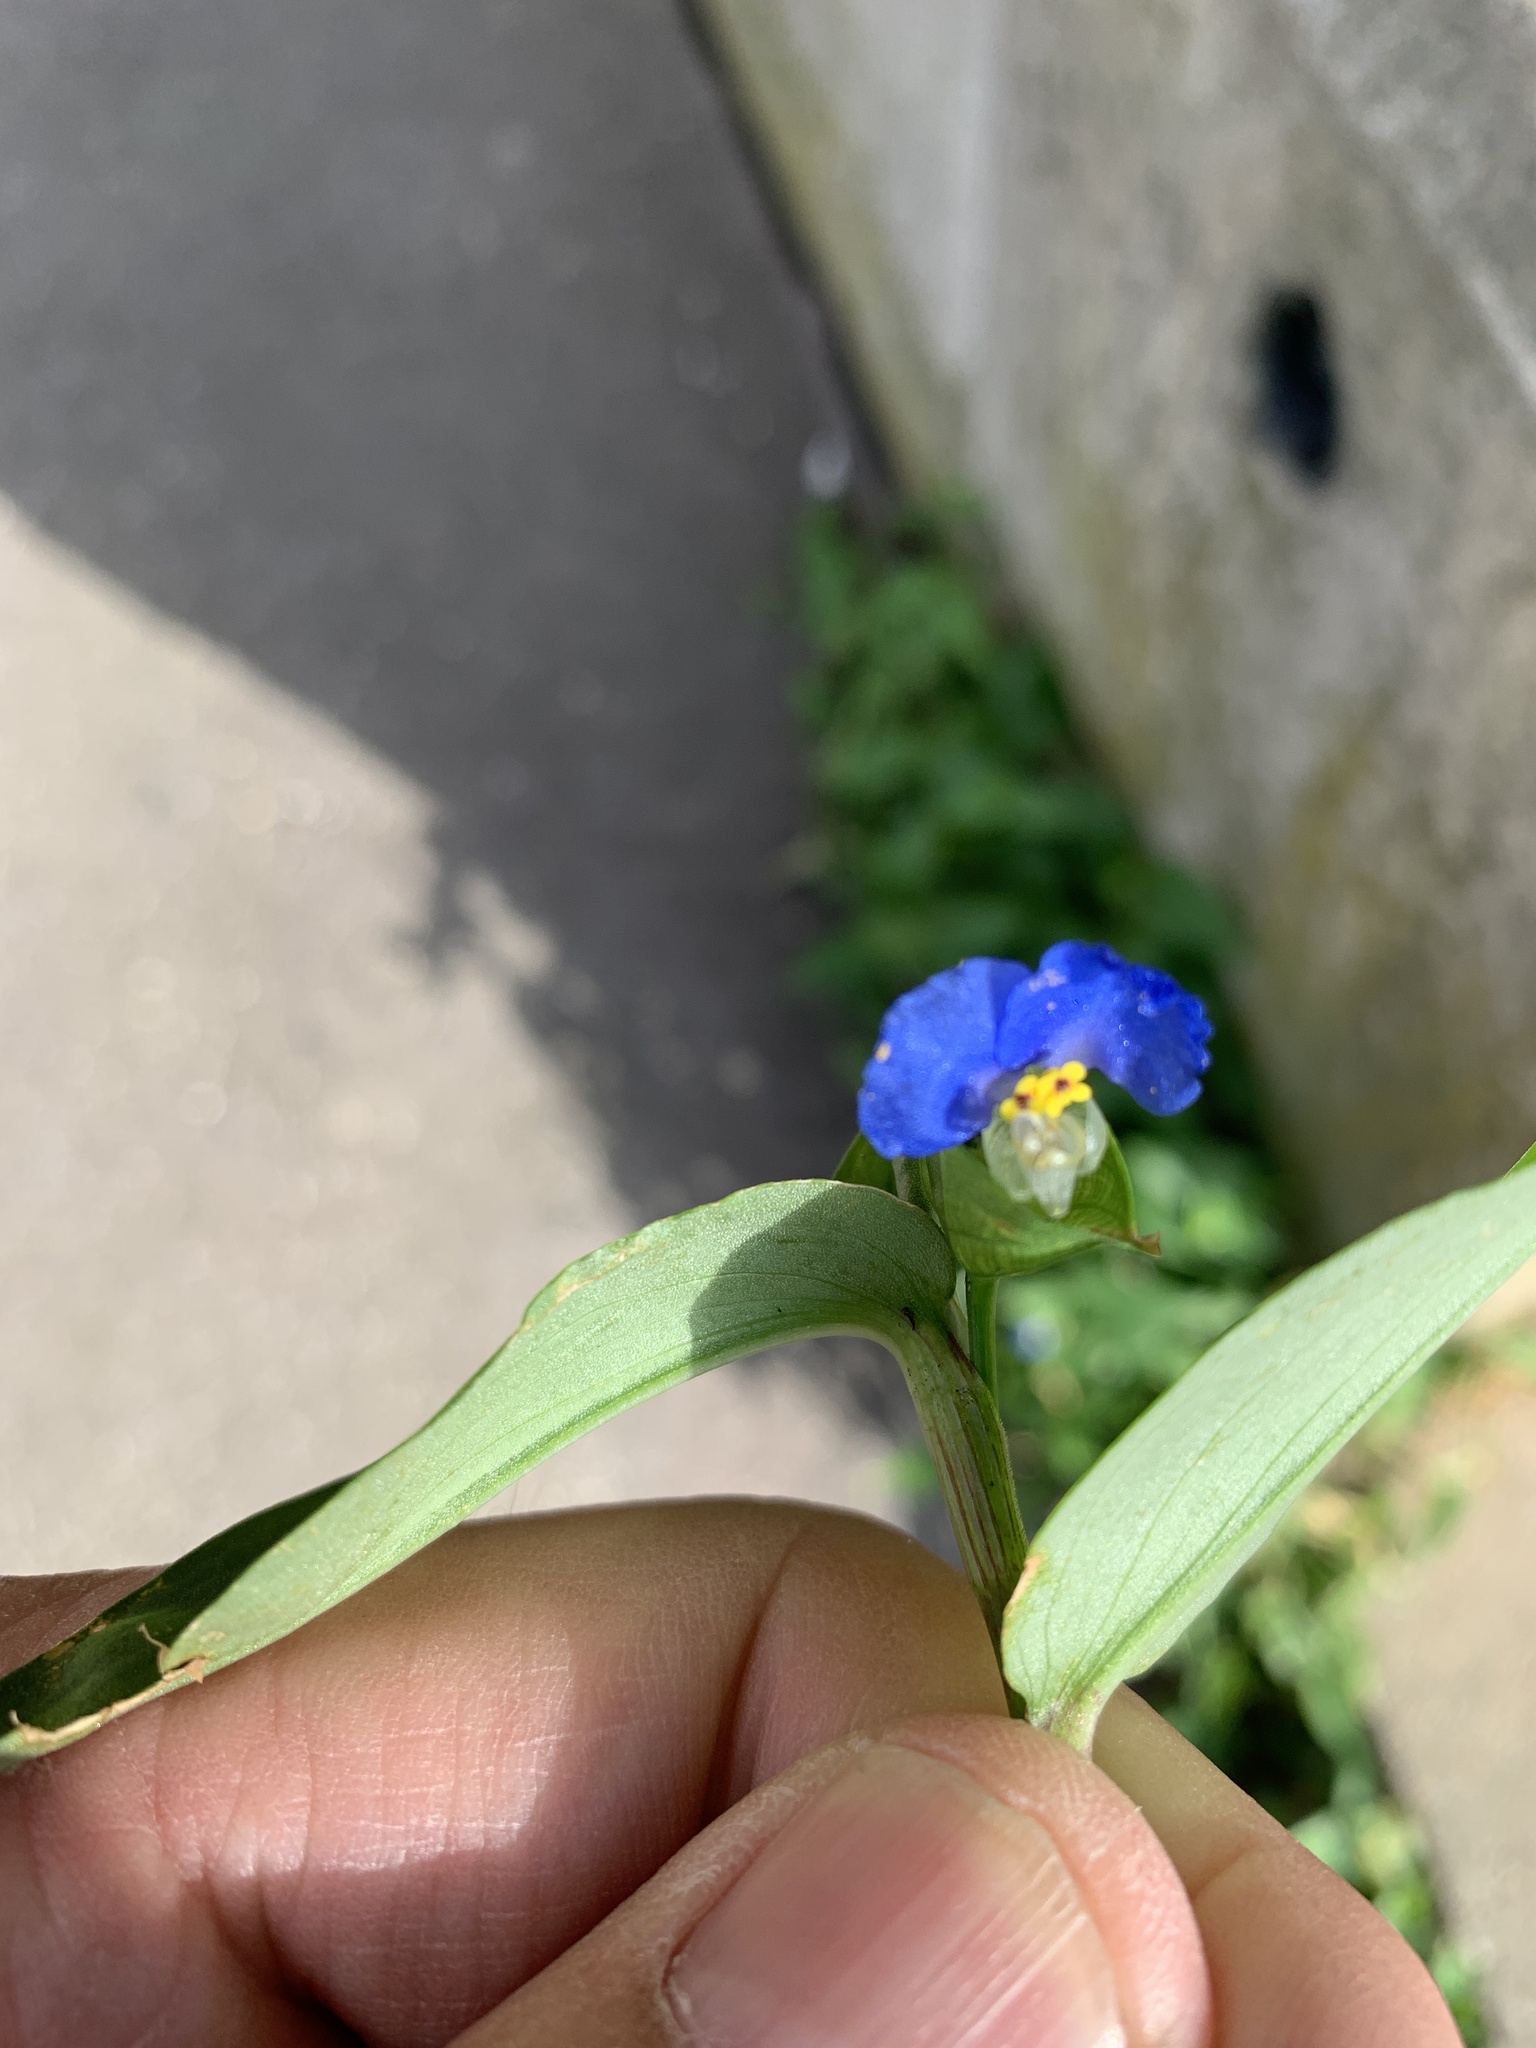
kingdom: Plantae
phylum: Tracheophyta
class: Liliopsida
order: Commelinales
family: Commelinaceae
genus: Commelina
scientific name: Commelina communis
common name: Asiatic dayflower
